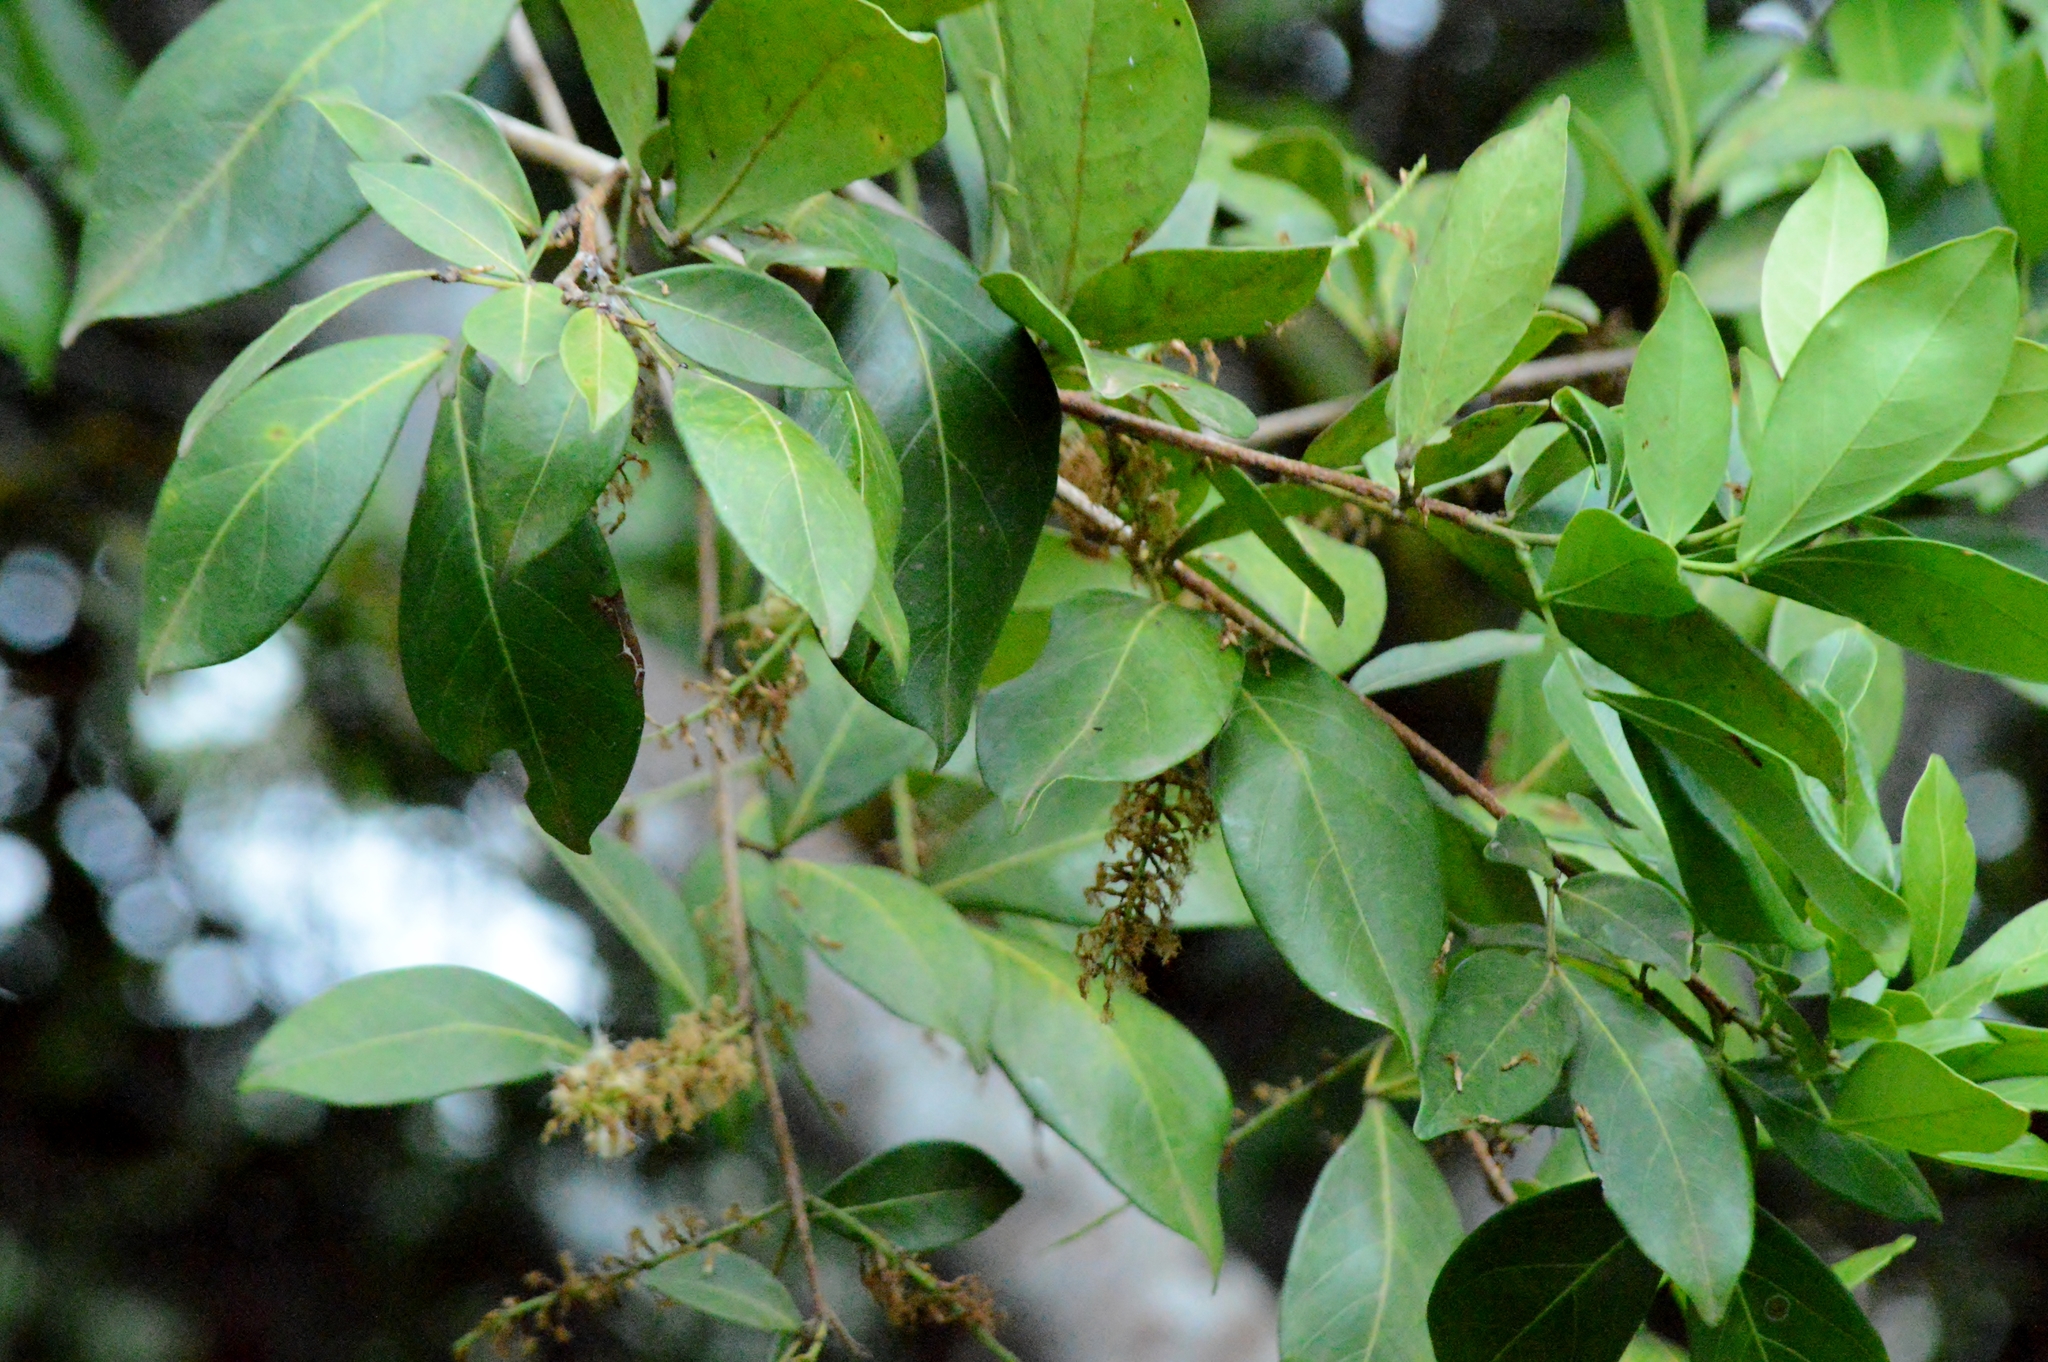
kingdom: Plantae
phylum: Tracheophyta
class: Magnoliopsida
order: Fabales
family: Fabaceae
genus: Inga
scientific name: Inga laurina
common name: Red wood
